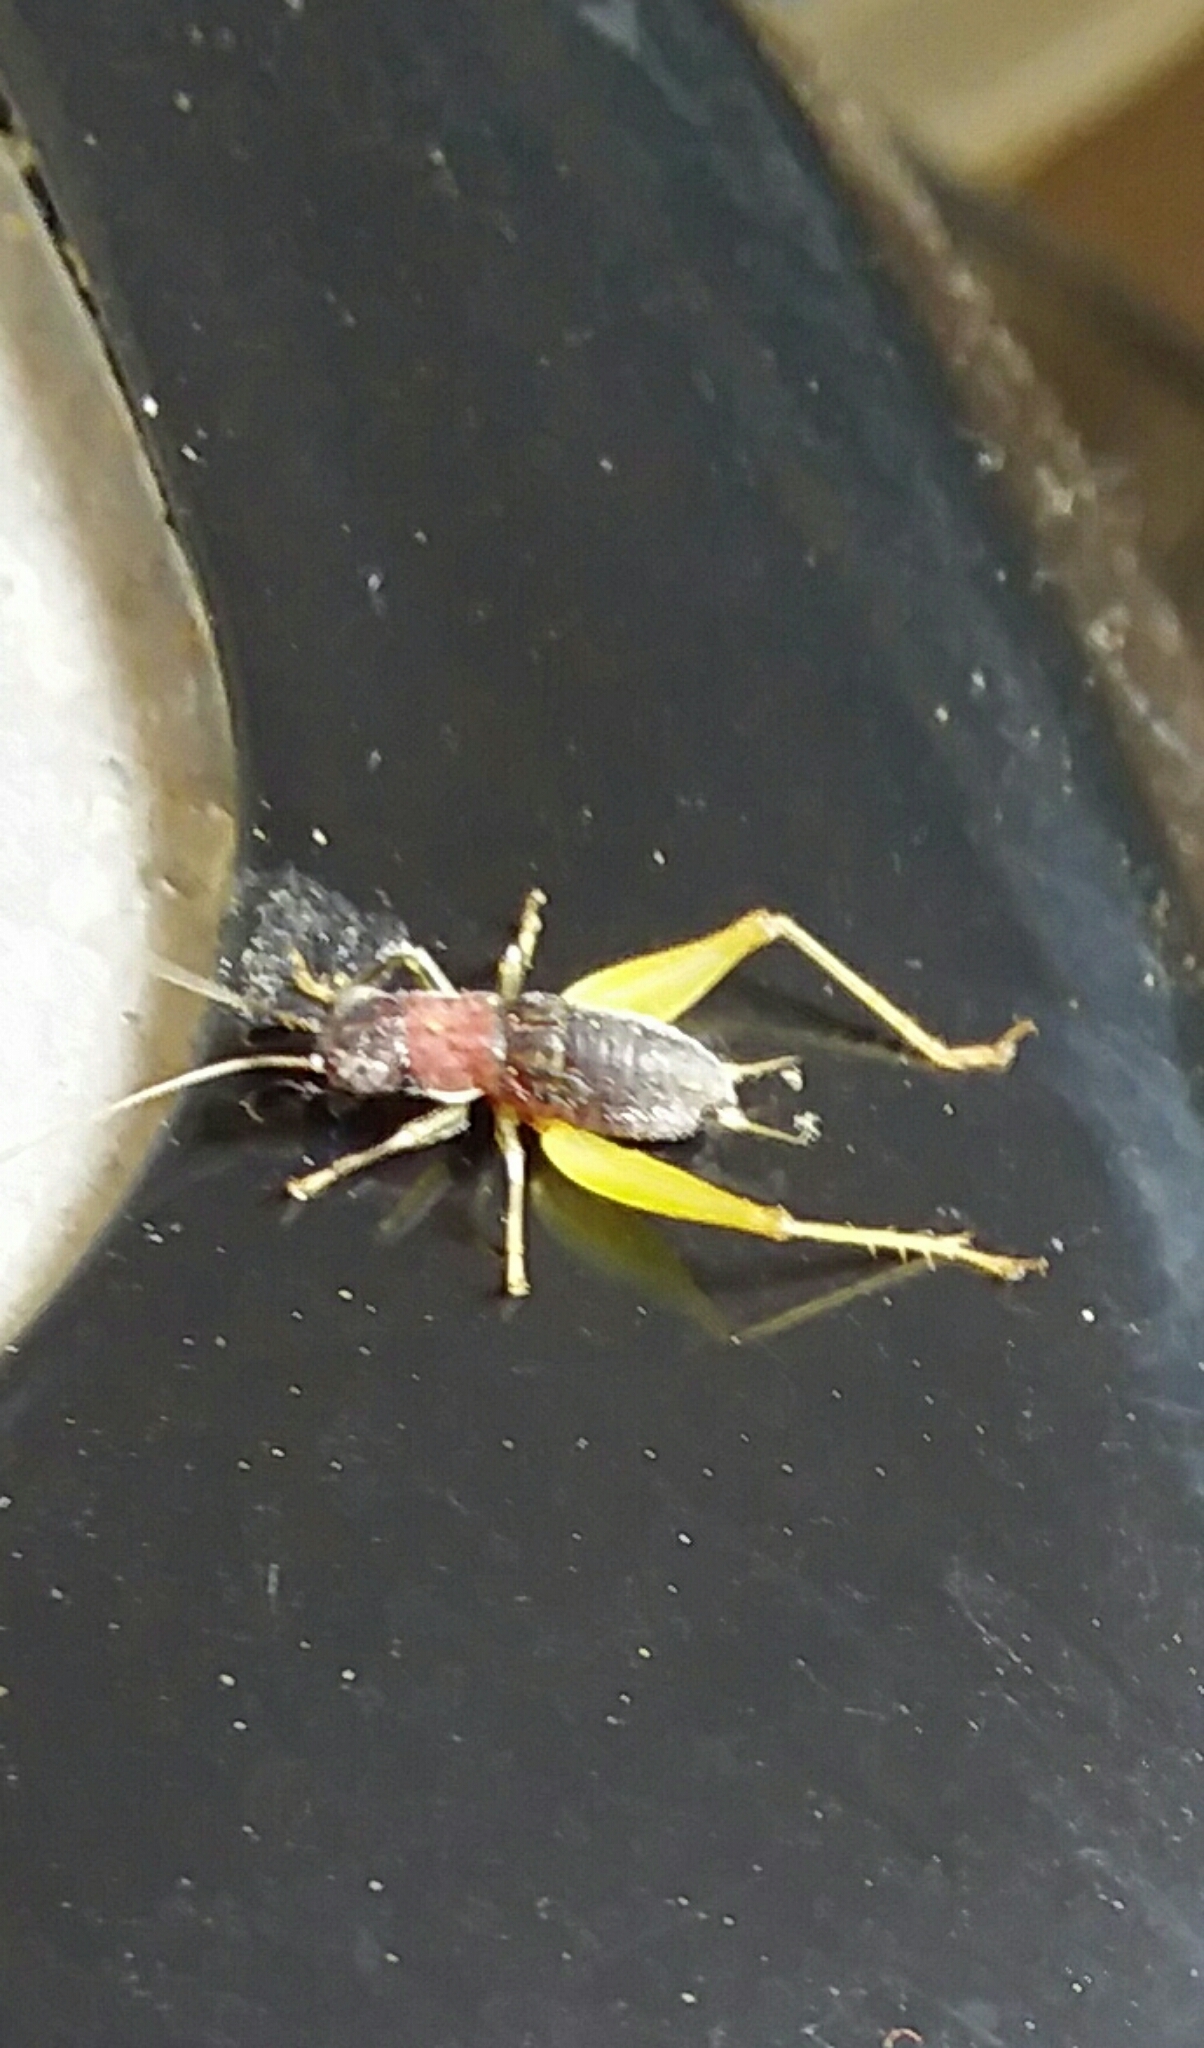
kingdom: Animalia
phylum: Arthropoda
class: Insecta
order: Orthoptera
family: Trigonidiidae
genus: Phyllopalpus
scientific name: Phyllopalpus pulchellus
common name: Handsome trig
